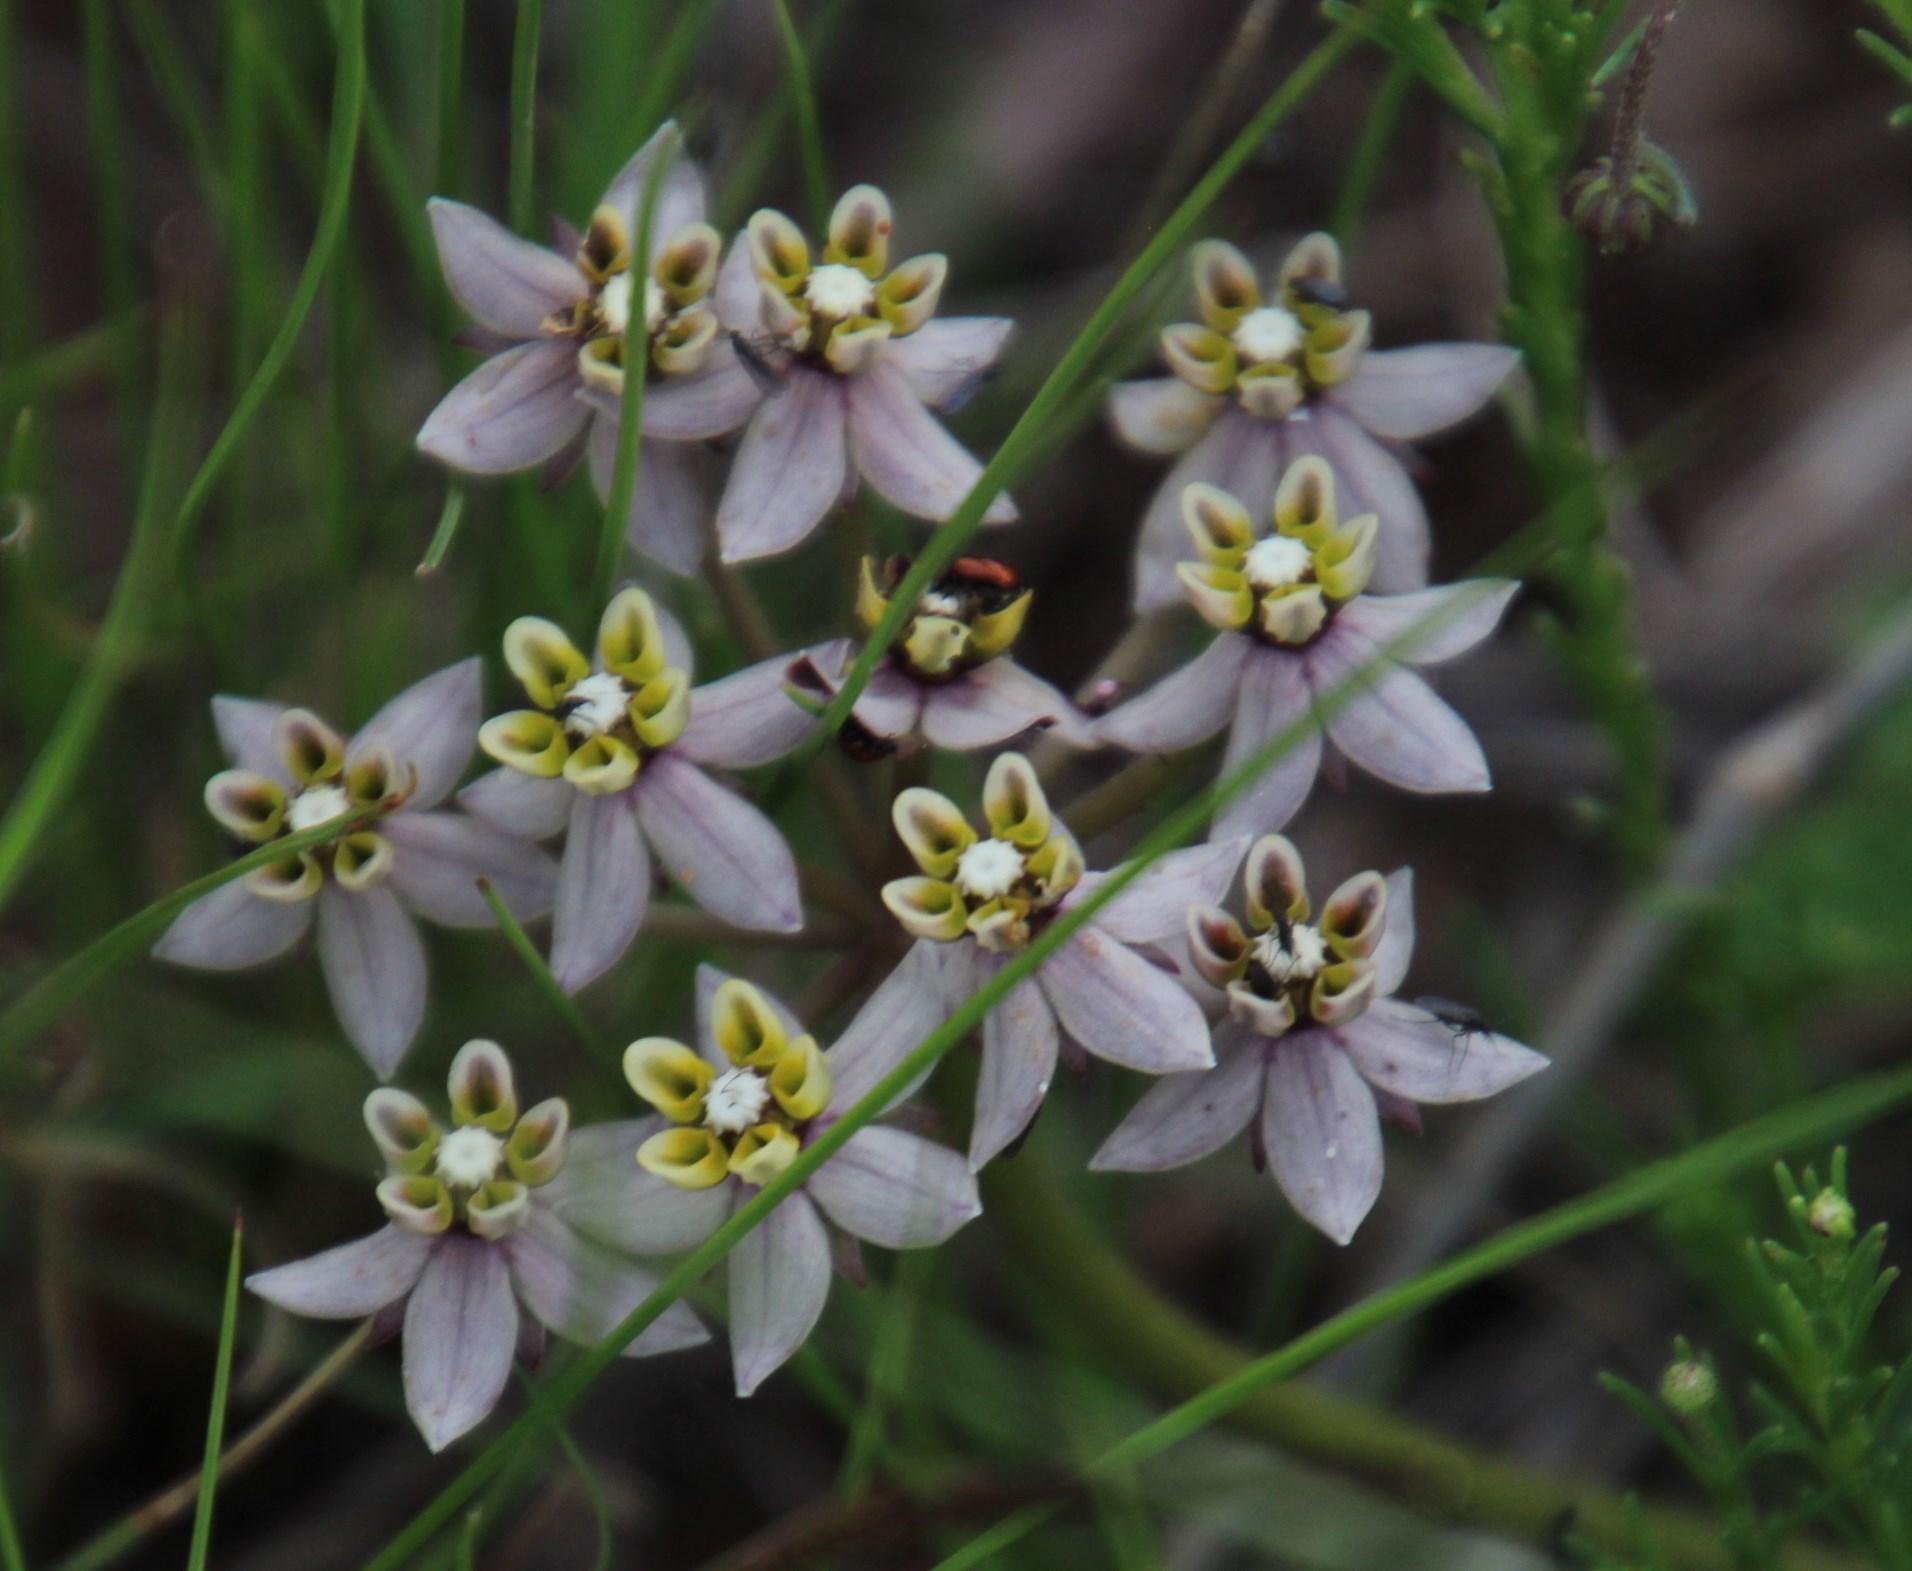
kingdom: Plantae
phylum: Tracheophyta
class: Magnoliopsida
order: Gentianales
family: Apocynaceae
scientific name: Apocynaceae
